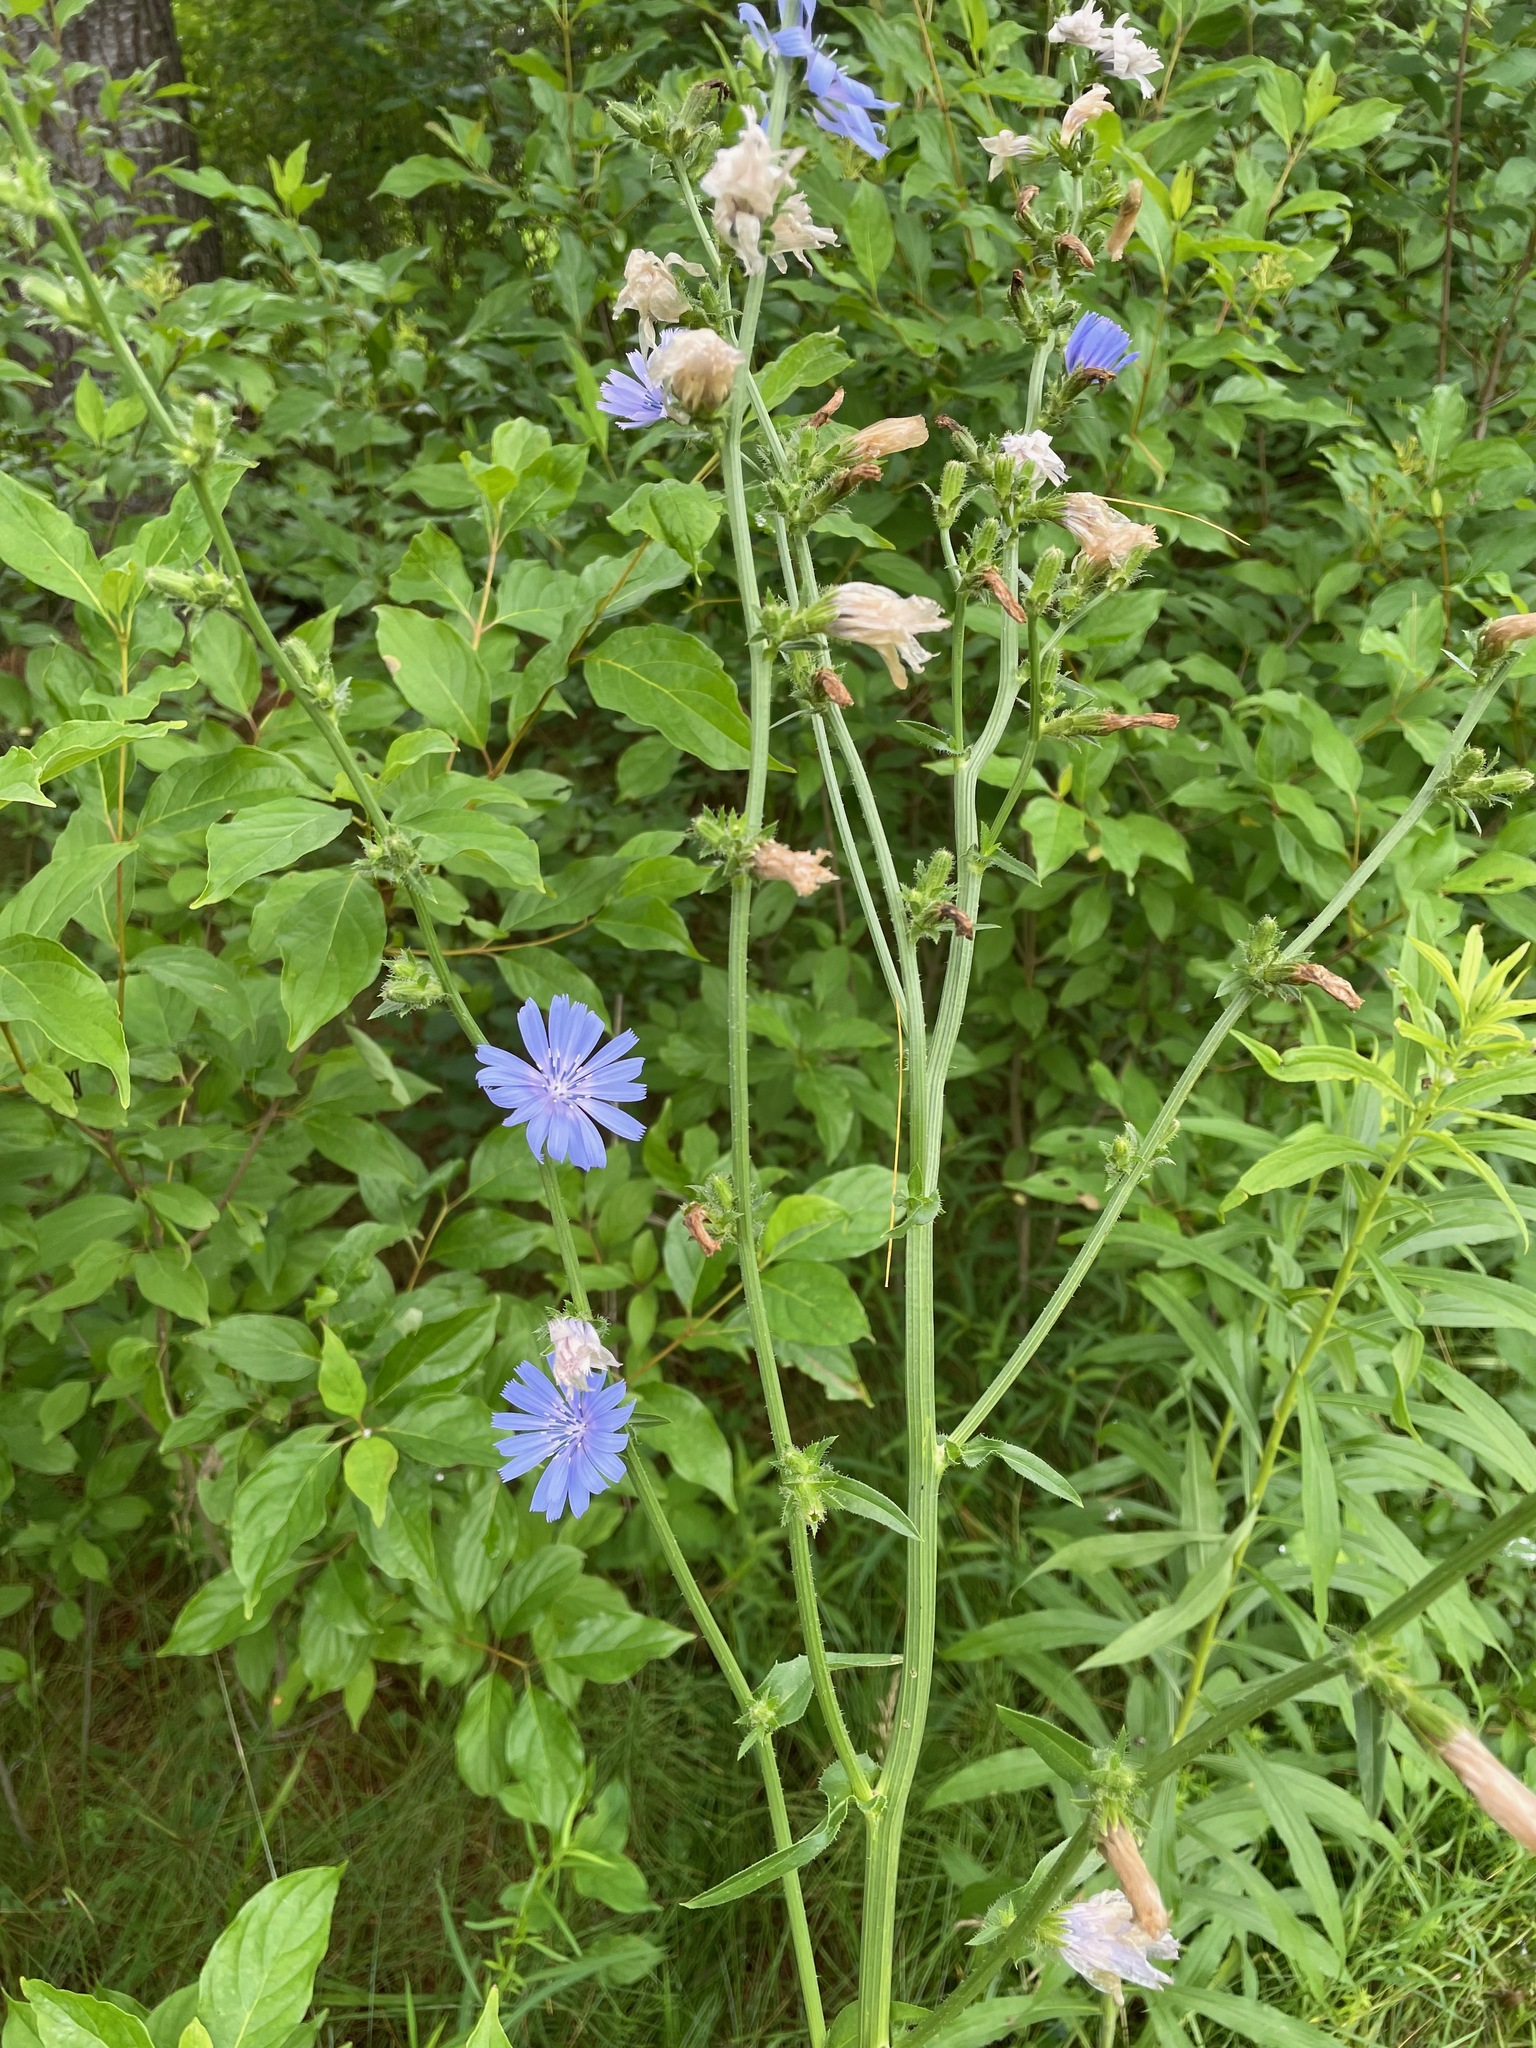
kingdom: Plantae
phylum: Tracheophyta
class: Magnoliopsida
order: Asterales
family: Asteraceae
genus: Cichorium
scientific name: Cichorium intybus
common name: Chicory
